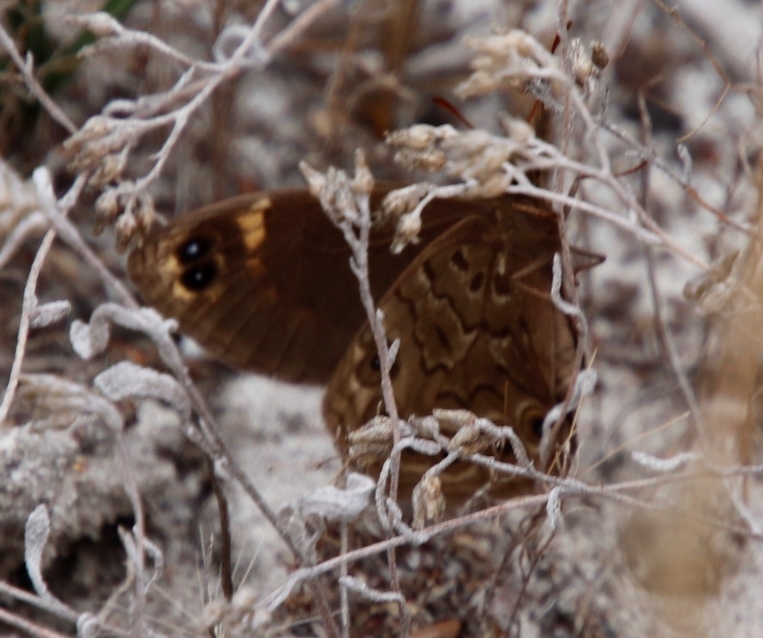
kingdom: Animalia
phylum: Arthropoda
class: Insecta
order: Lepidoptera
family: Nymphalidae
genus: Dira
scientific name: Dira clytus
